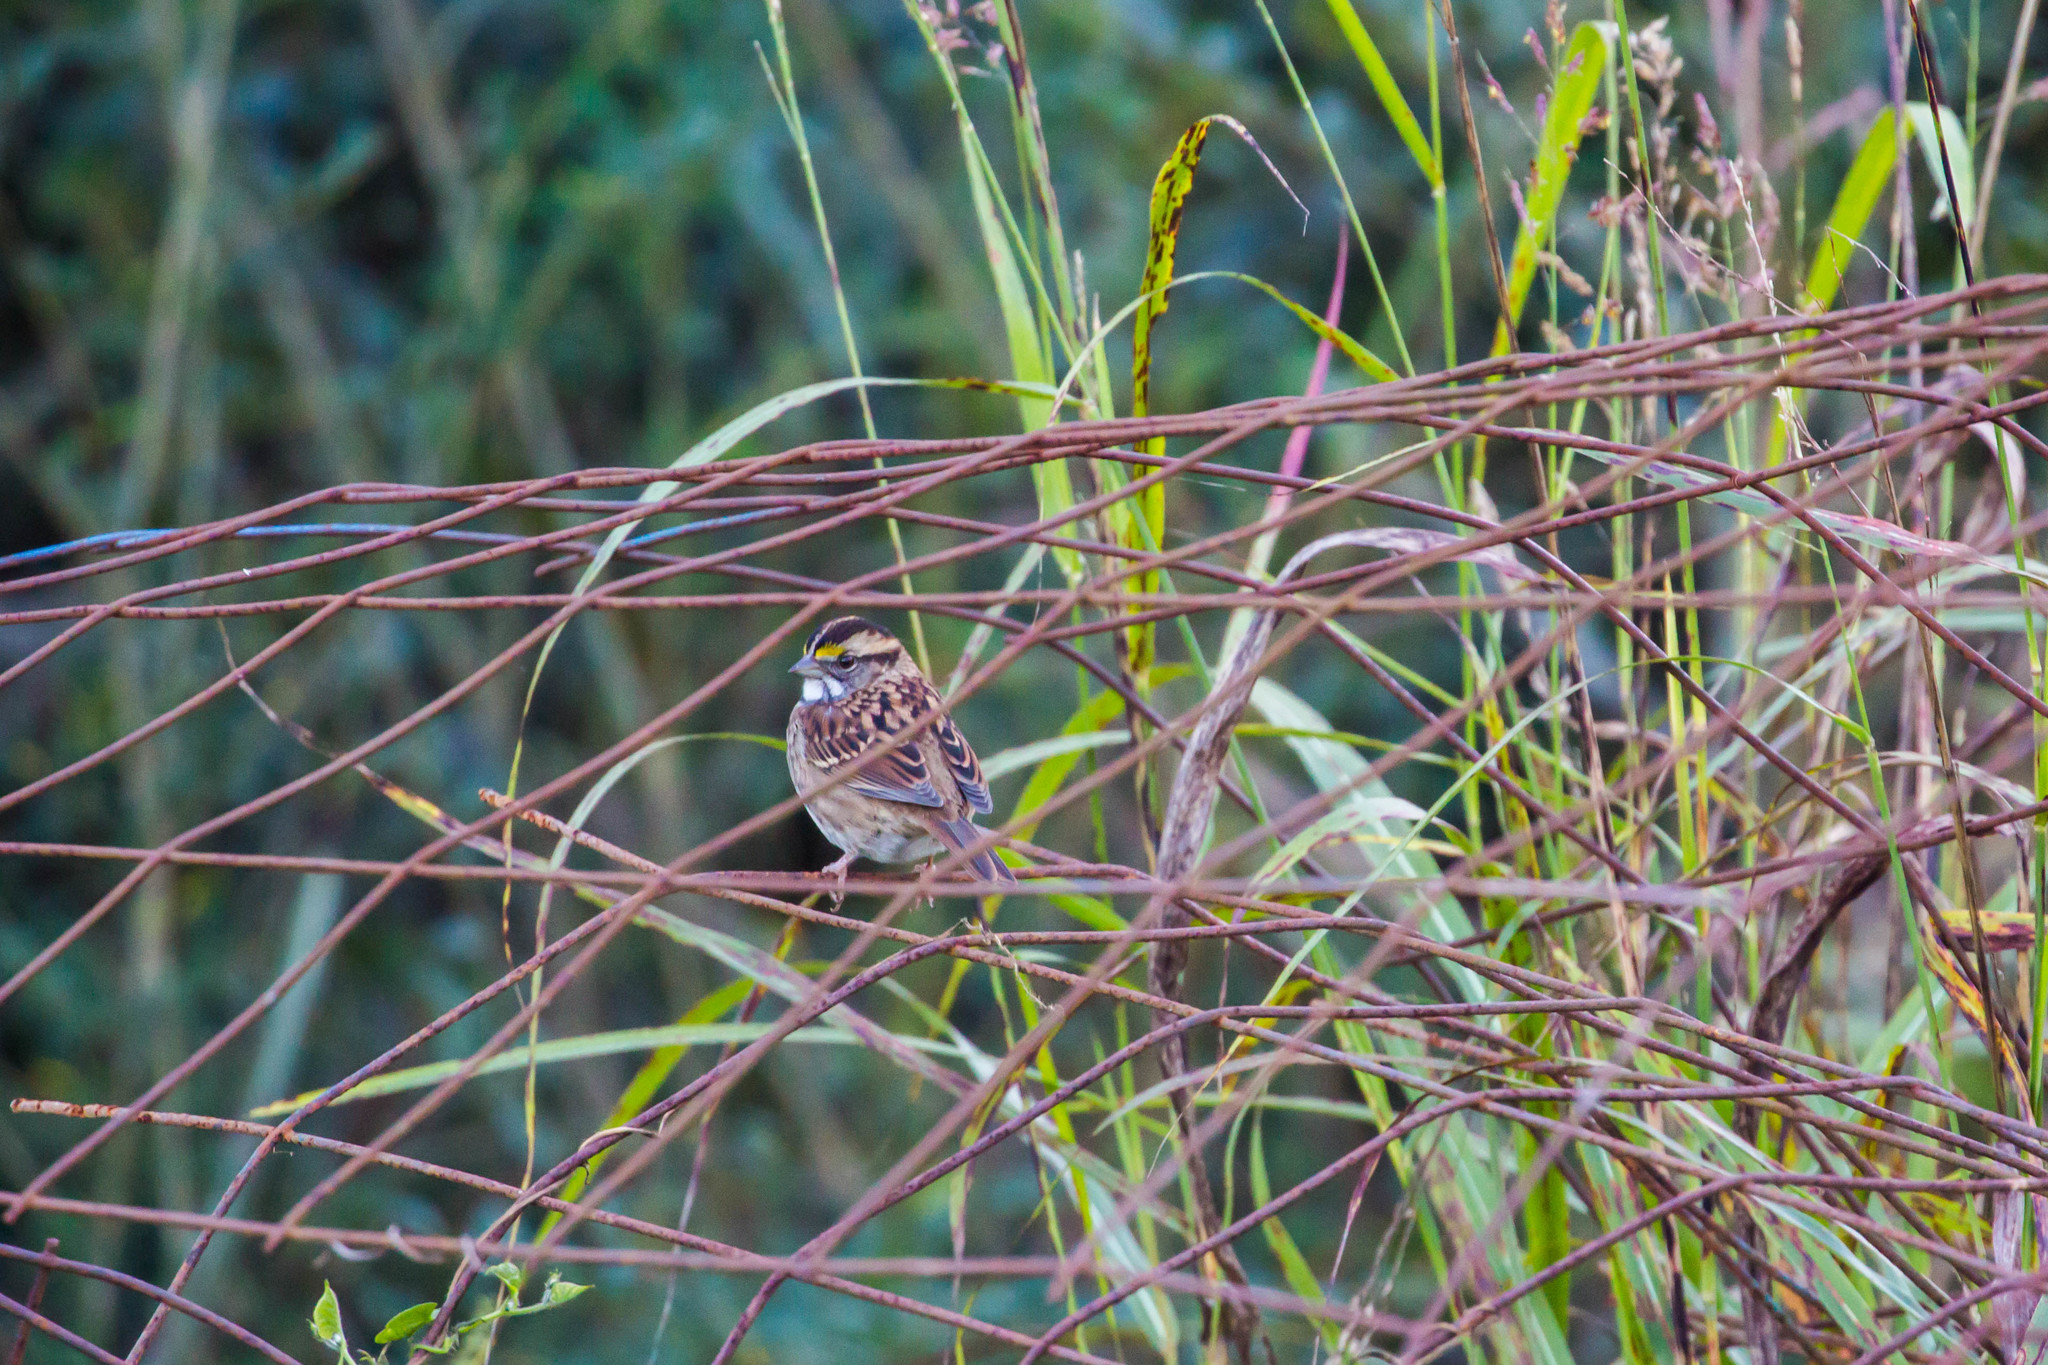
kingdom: Animalia
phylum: Chordata
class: Aves
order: Passeriformes
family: Passerellidae
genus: Zonotrichia
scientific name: Zonotrichia albicollis
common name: White-throated sparrow
